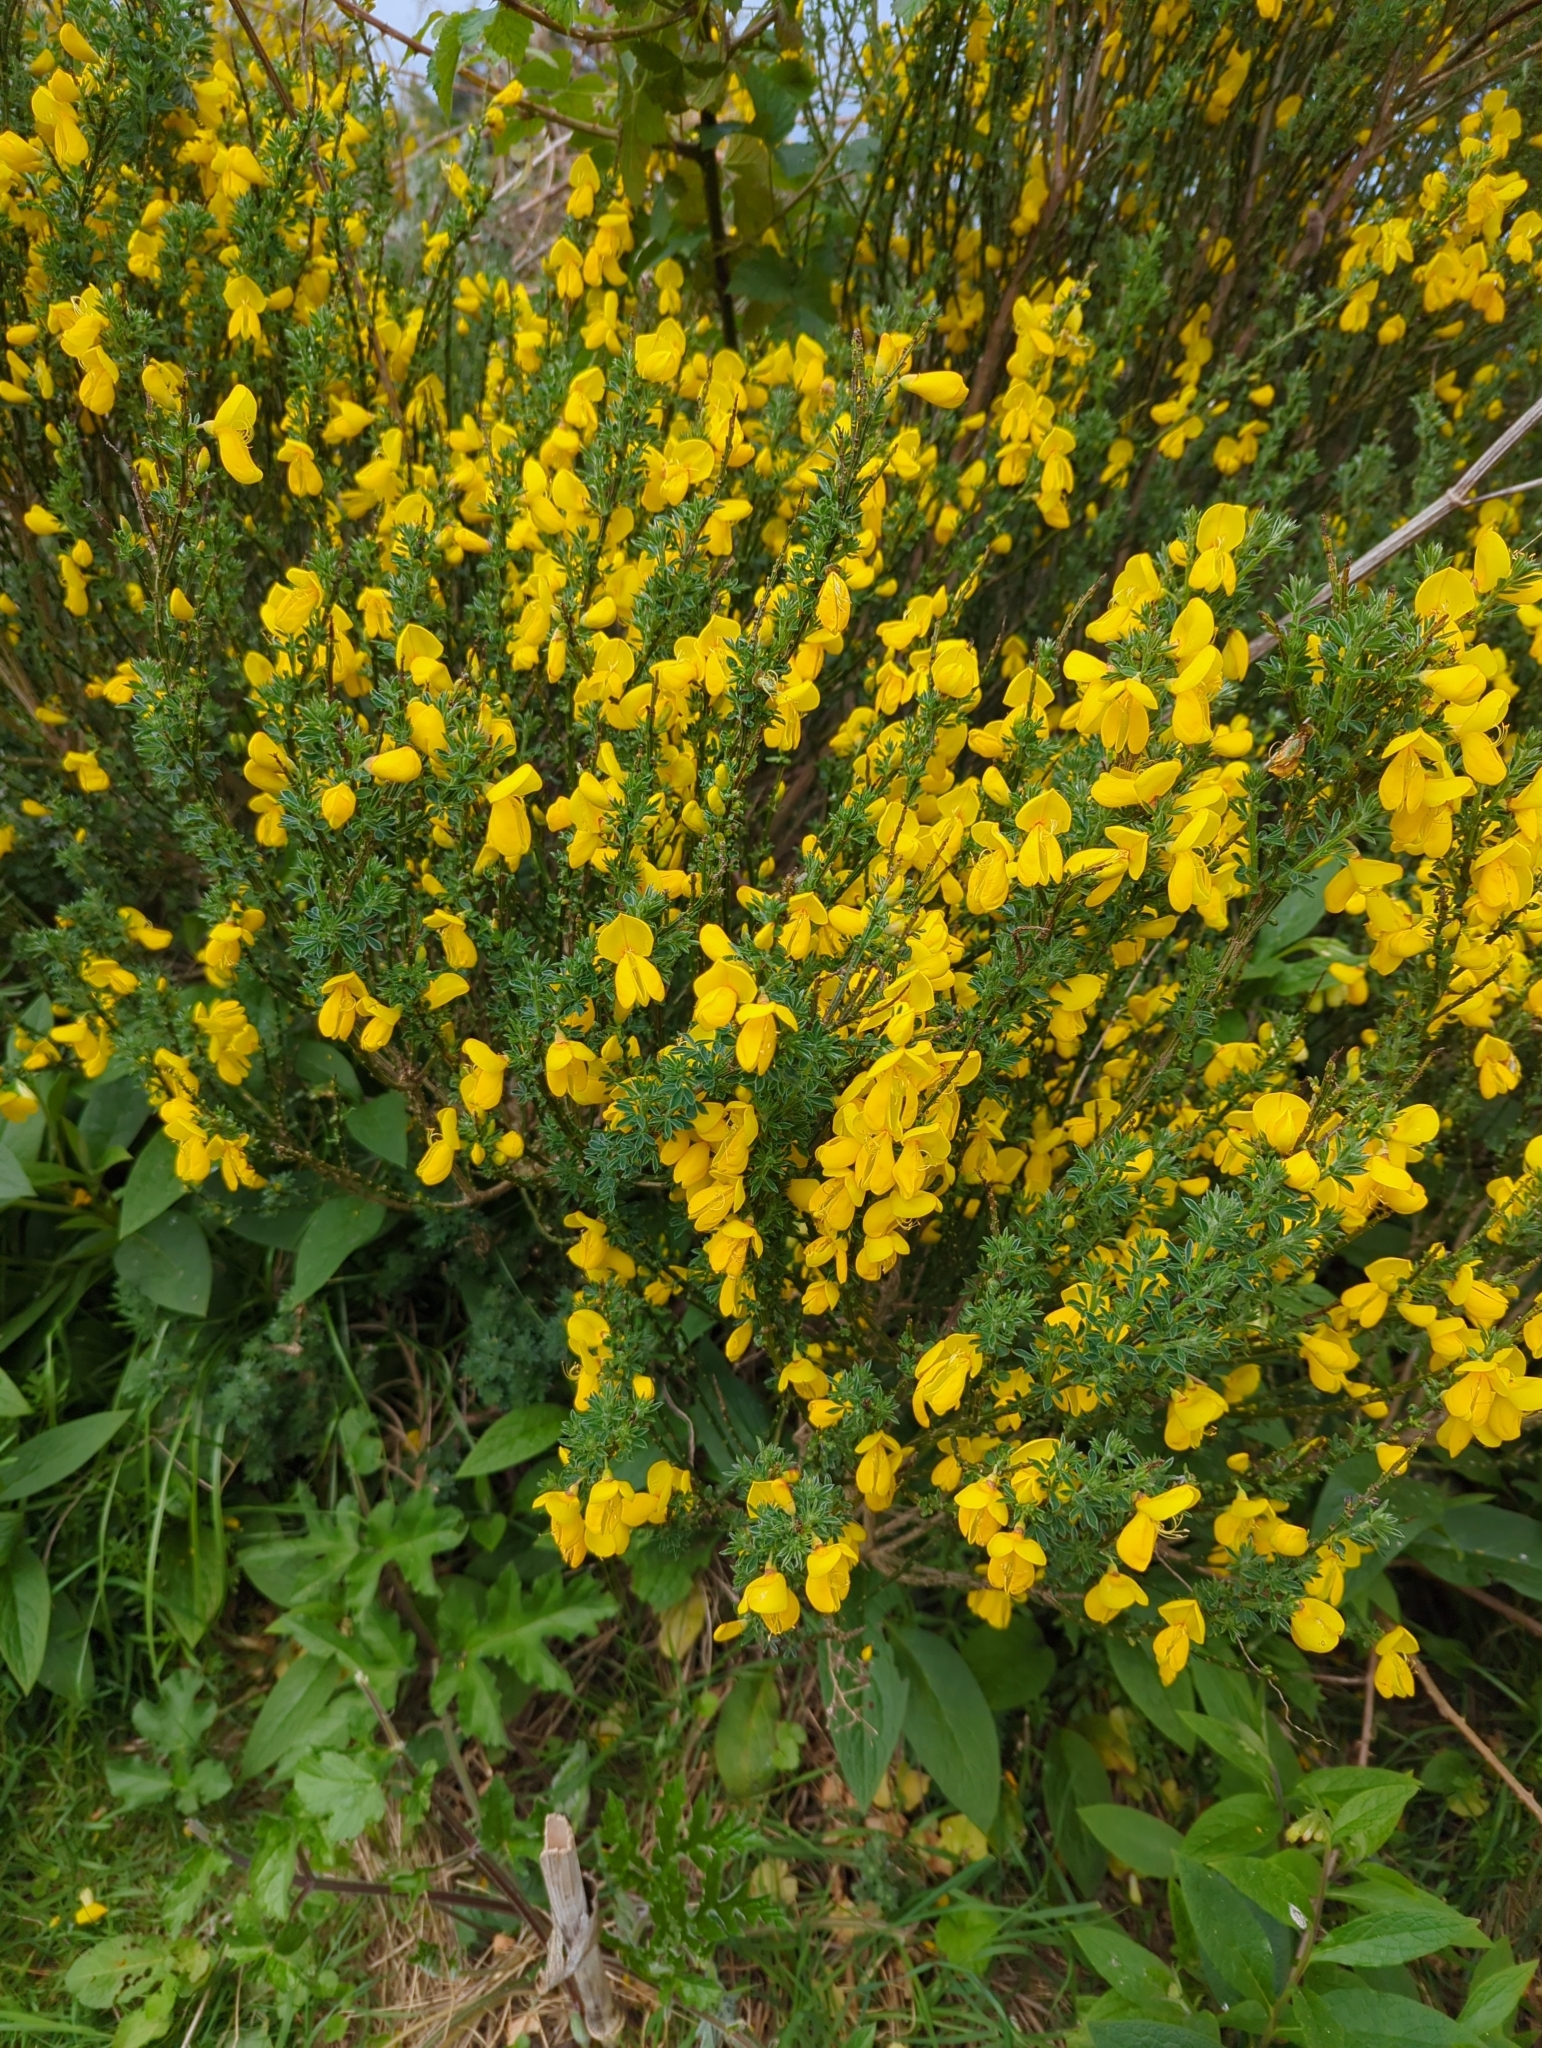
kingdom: Plantae
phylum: Tracheophyta
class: Magnoliopsida
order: Fabales
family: Fabaceae
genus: Cytisus
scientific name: Cytisus scoparius
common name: Scotch broom
